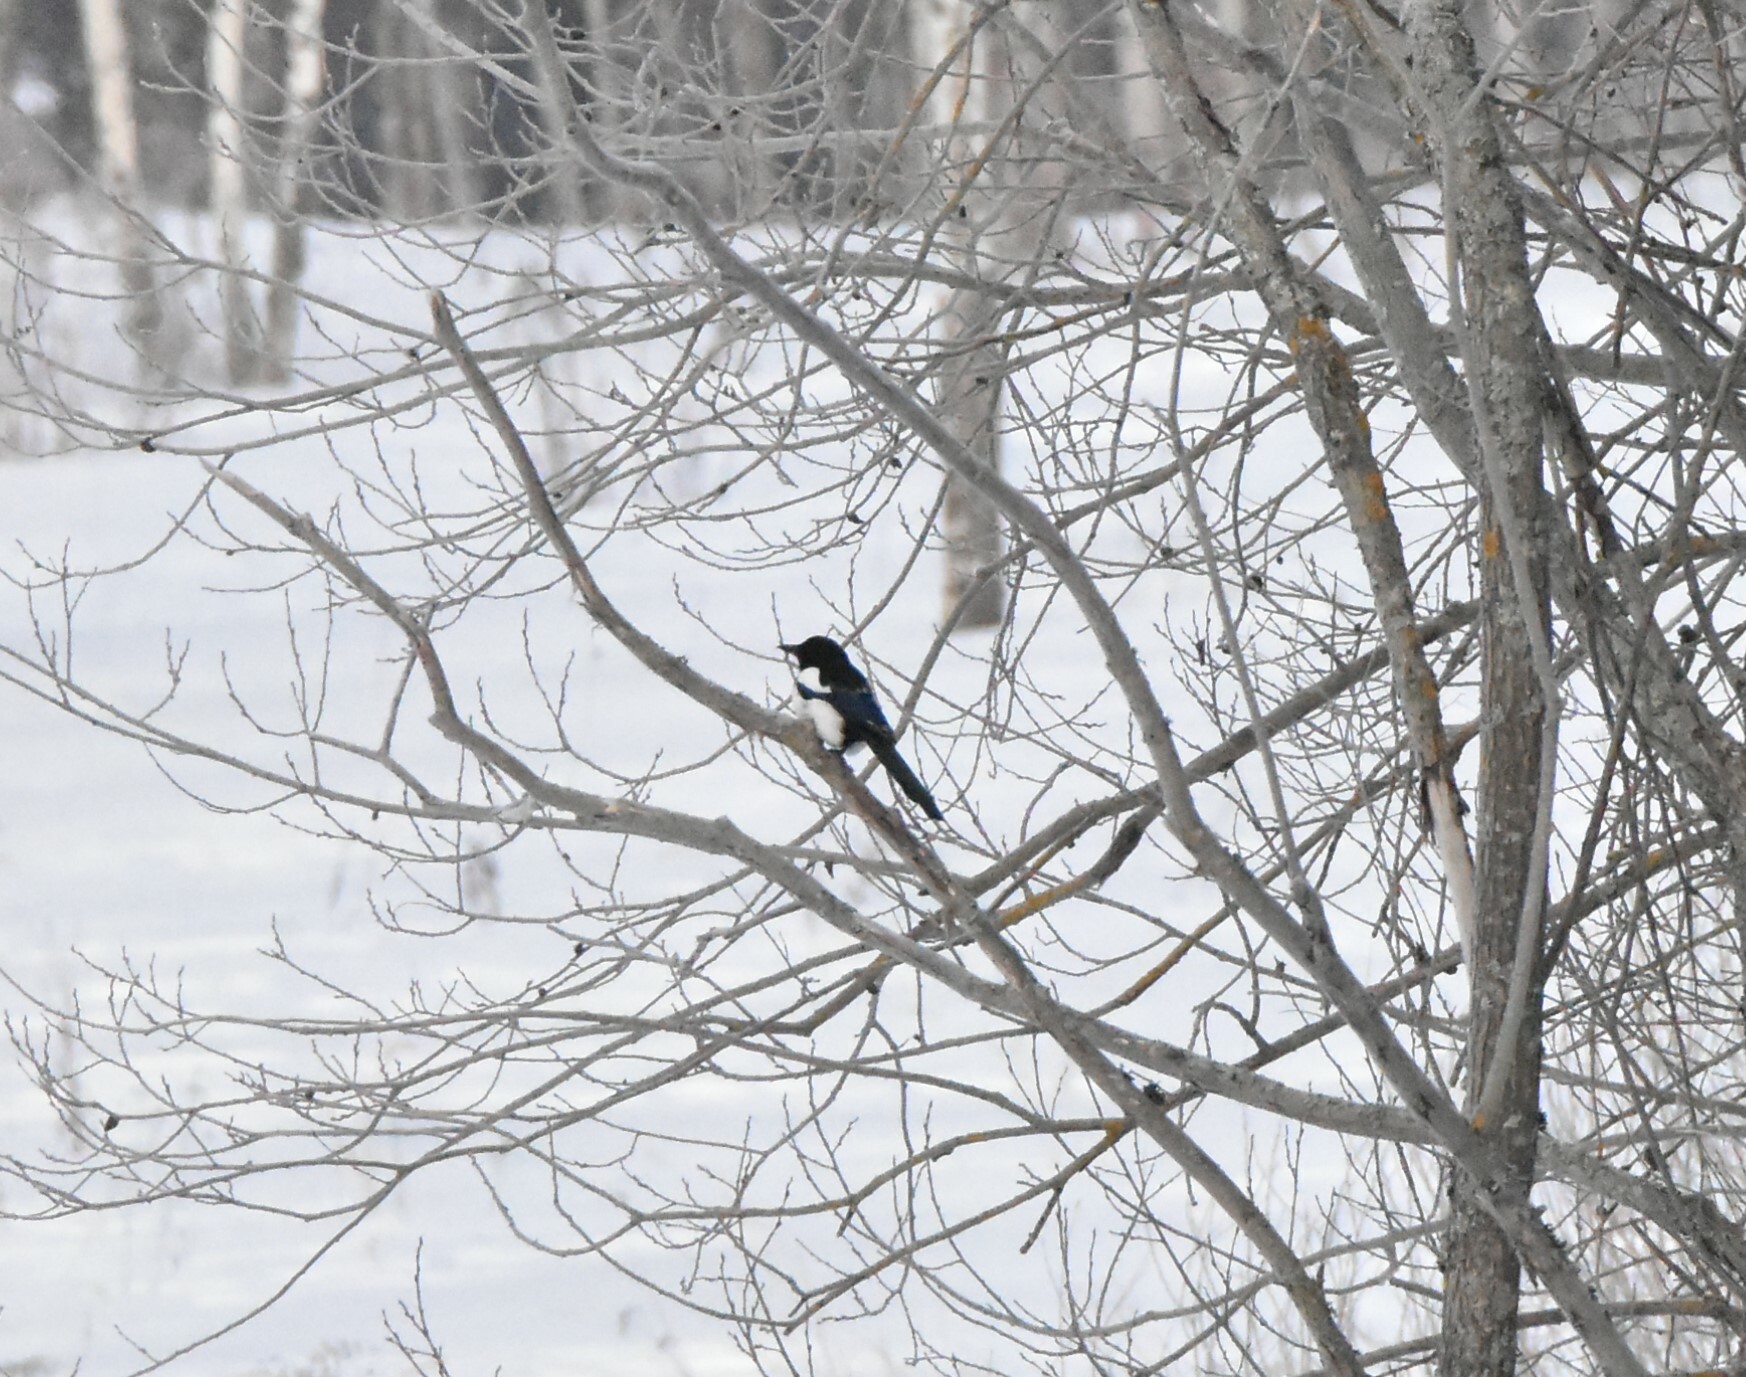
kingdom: Animalia
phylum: Chordata
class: Aves
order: Passeriformes
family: Corvidae
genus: Pica
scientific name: Pica pica
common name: Eurasian magpie
